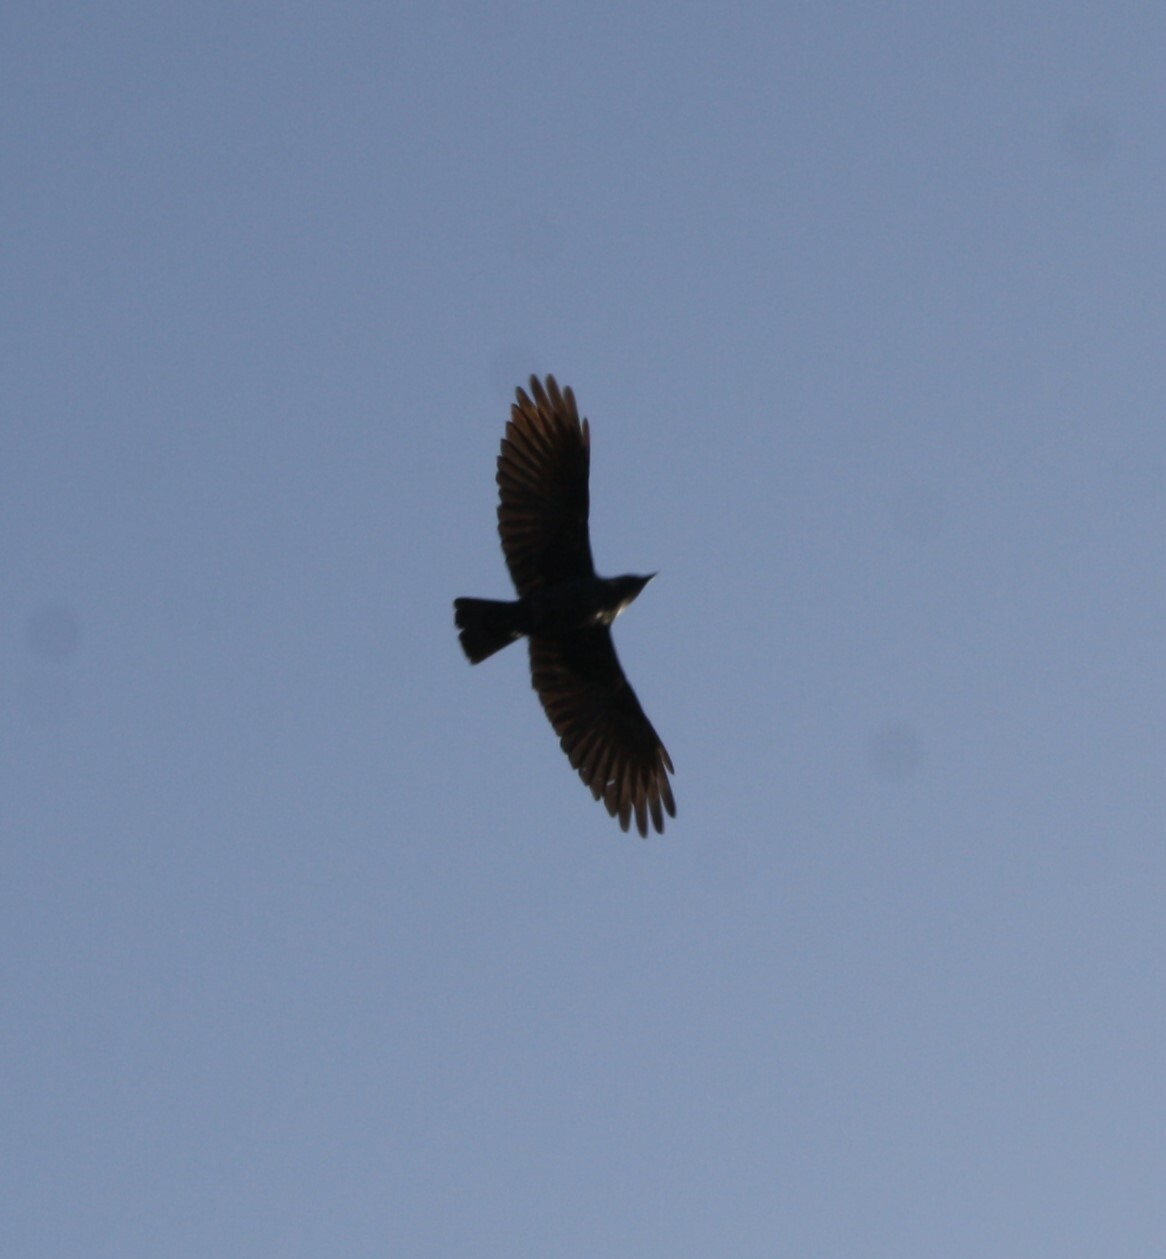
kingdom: Animalia
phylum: Chordata
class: Aves
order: Passeriformes
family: Corvidae
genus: Coloeus
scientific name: Coloeus monedula
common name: Western jackdaw
